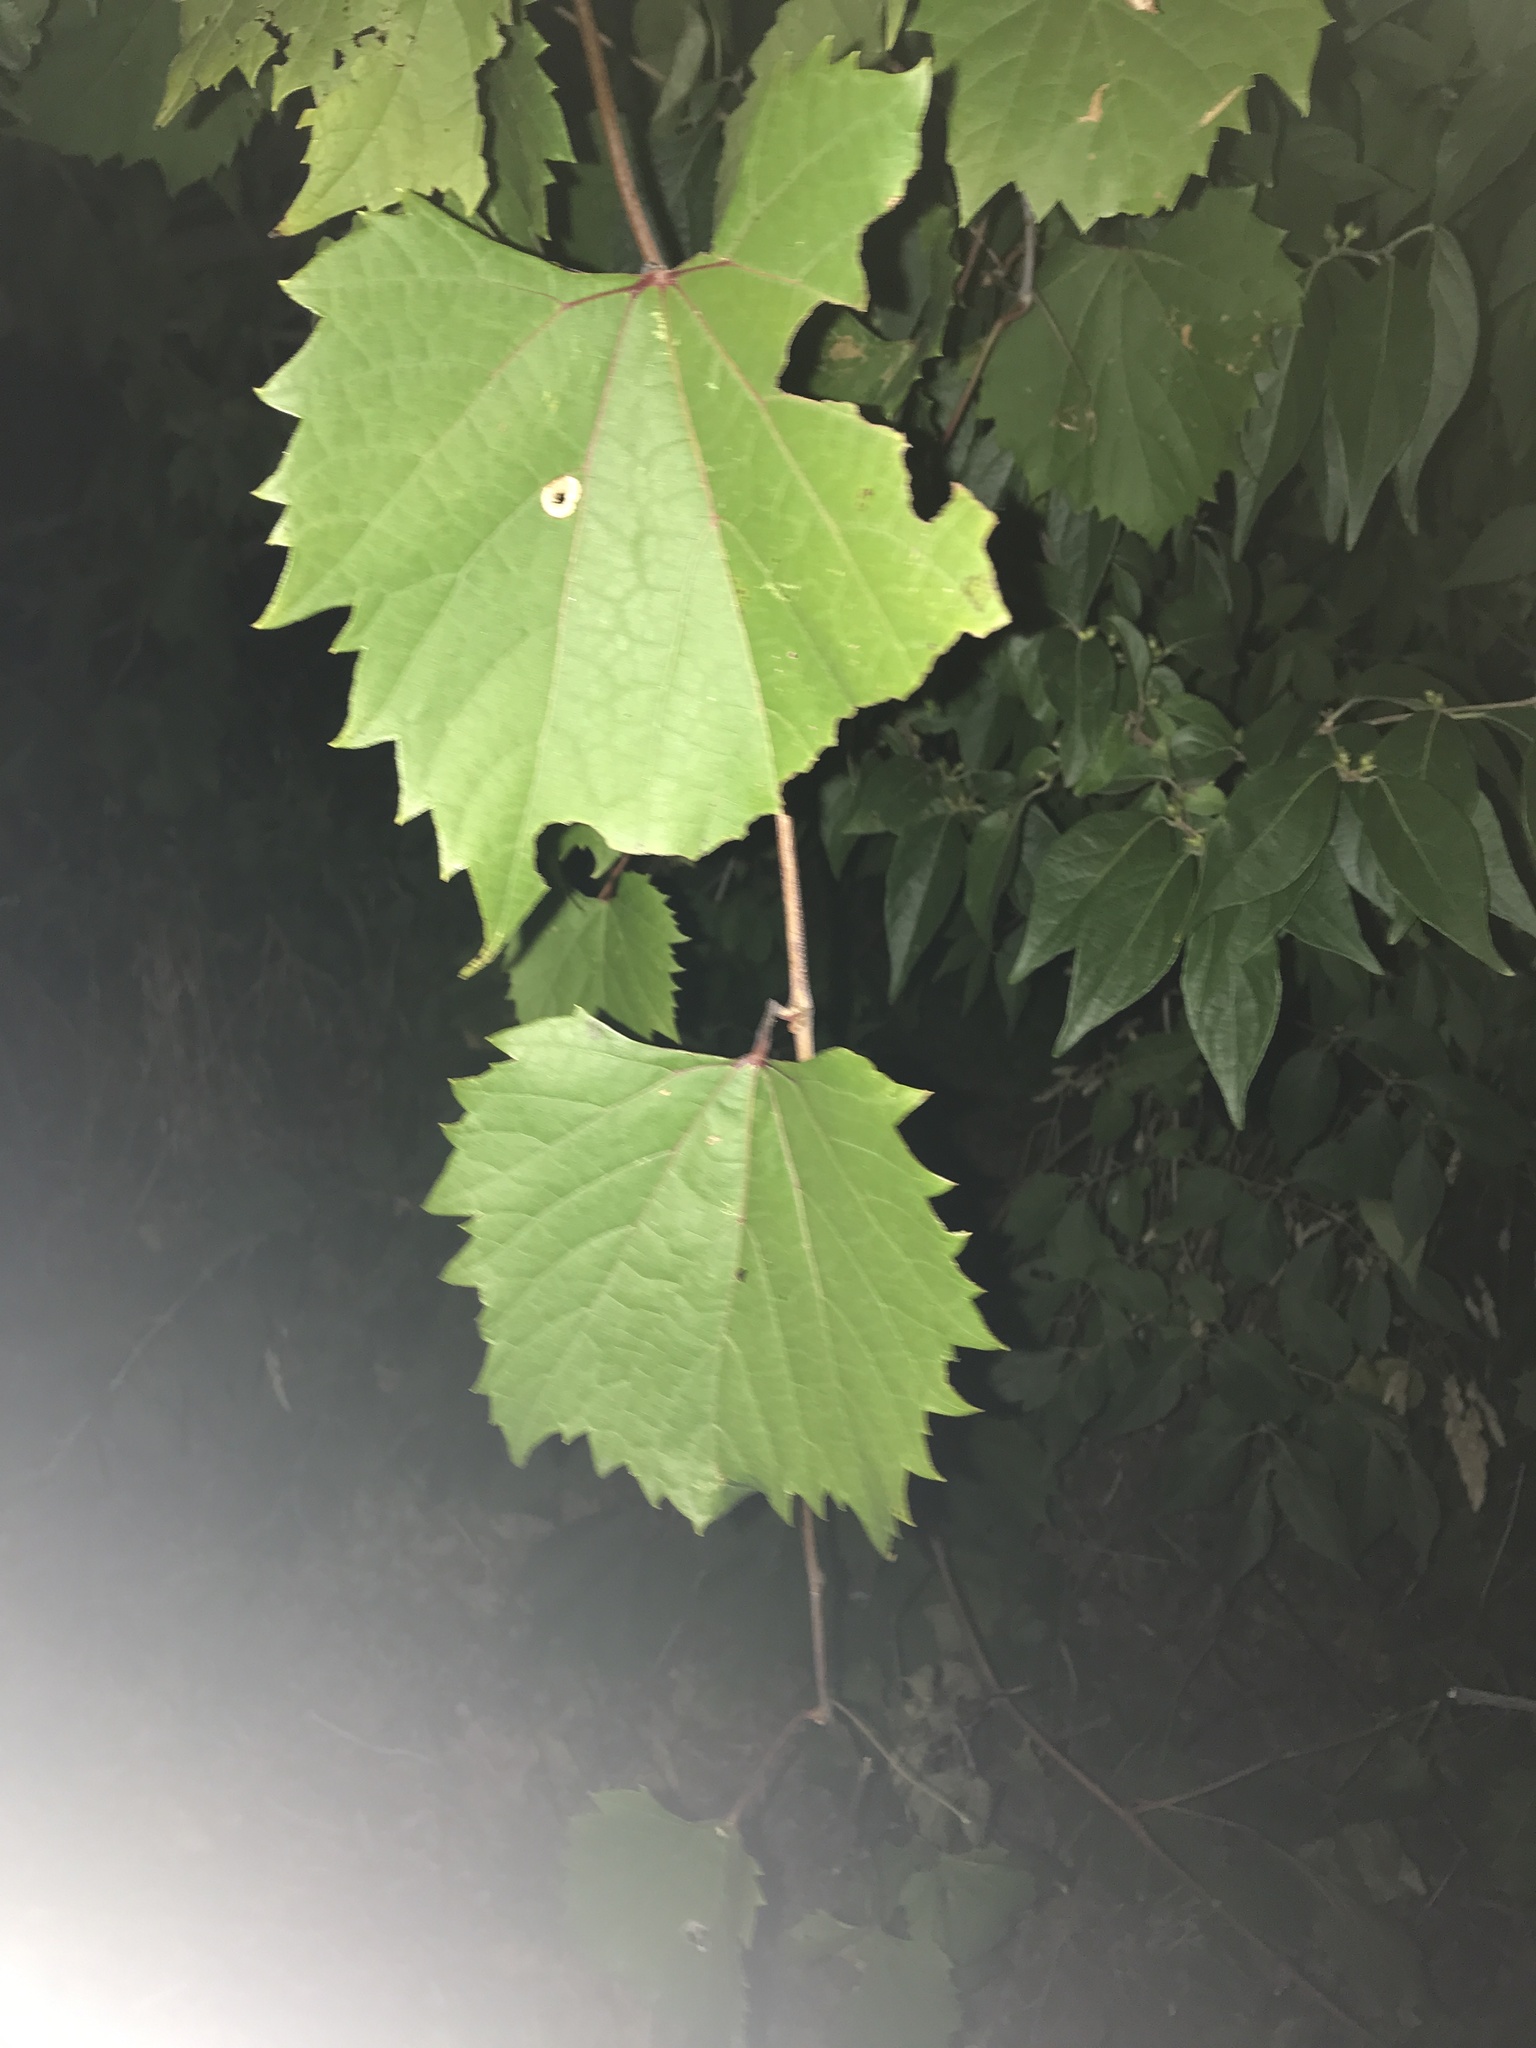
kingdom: Plantae
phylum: Tracheophyta
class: Magnoliopsida
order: Vitales
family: Vitaceae
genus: Vitis
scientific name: Vitis riparia
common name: Frost grape
